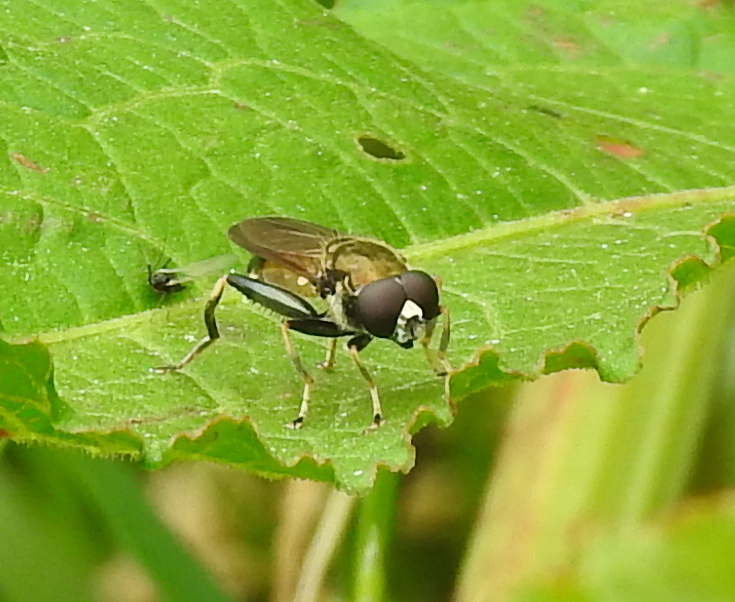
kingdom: Animalia
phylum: Arthropoda
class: Insecta
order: Diptera
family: Syrphidae
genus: Xylota
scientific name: Xylota segnis
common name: Brown-toed forest fly
